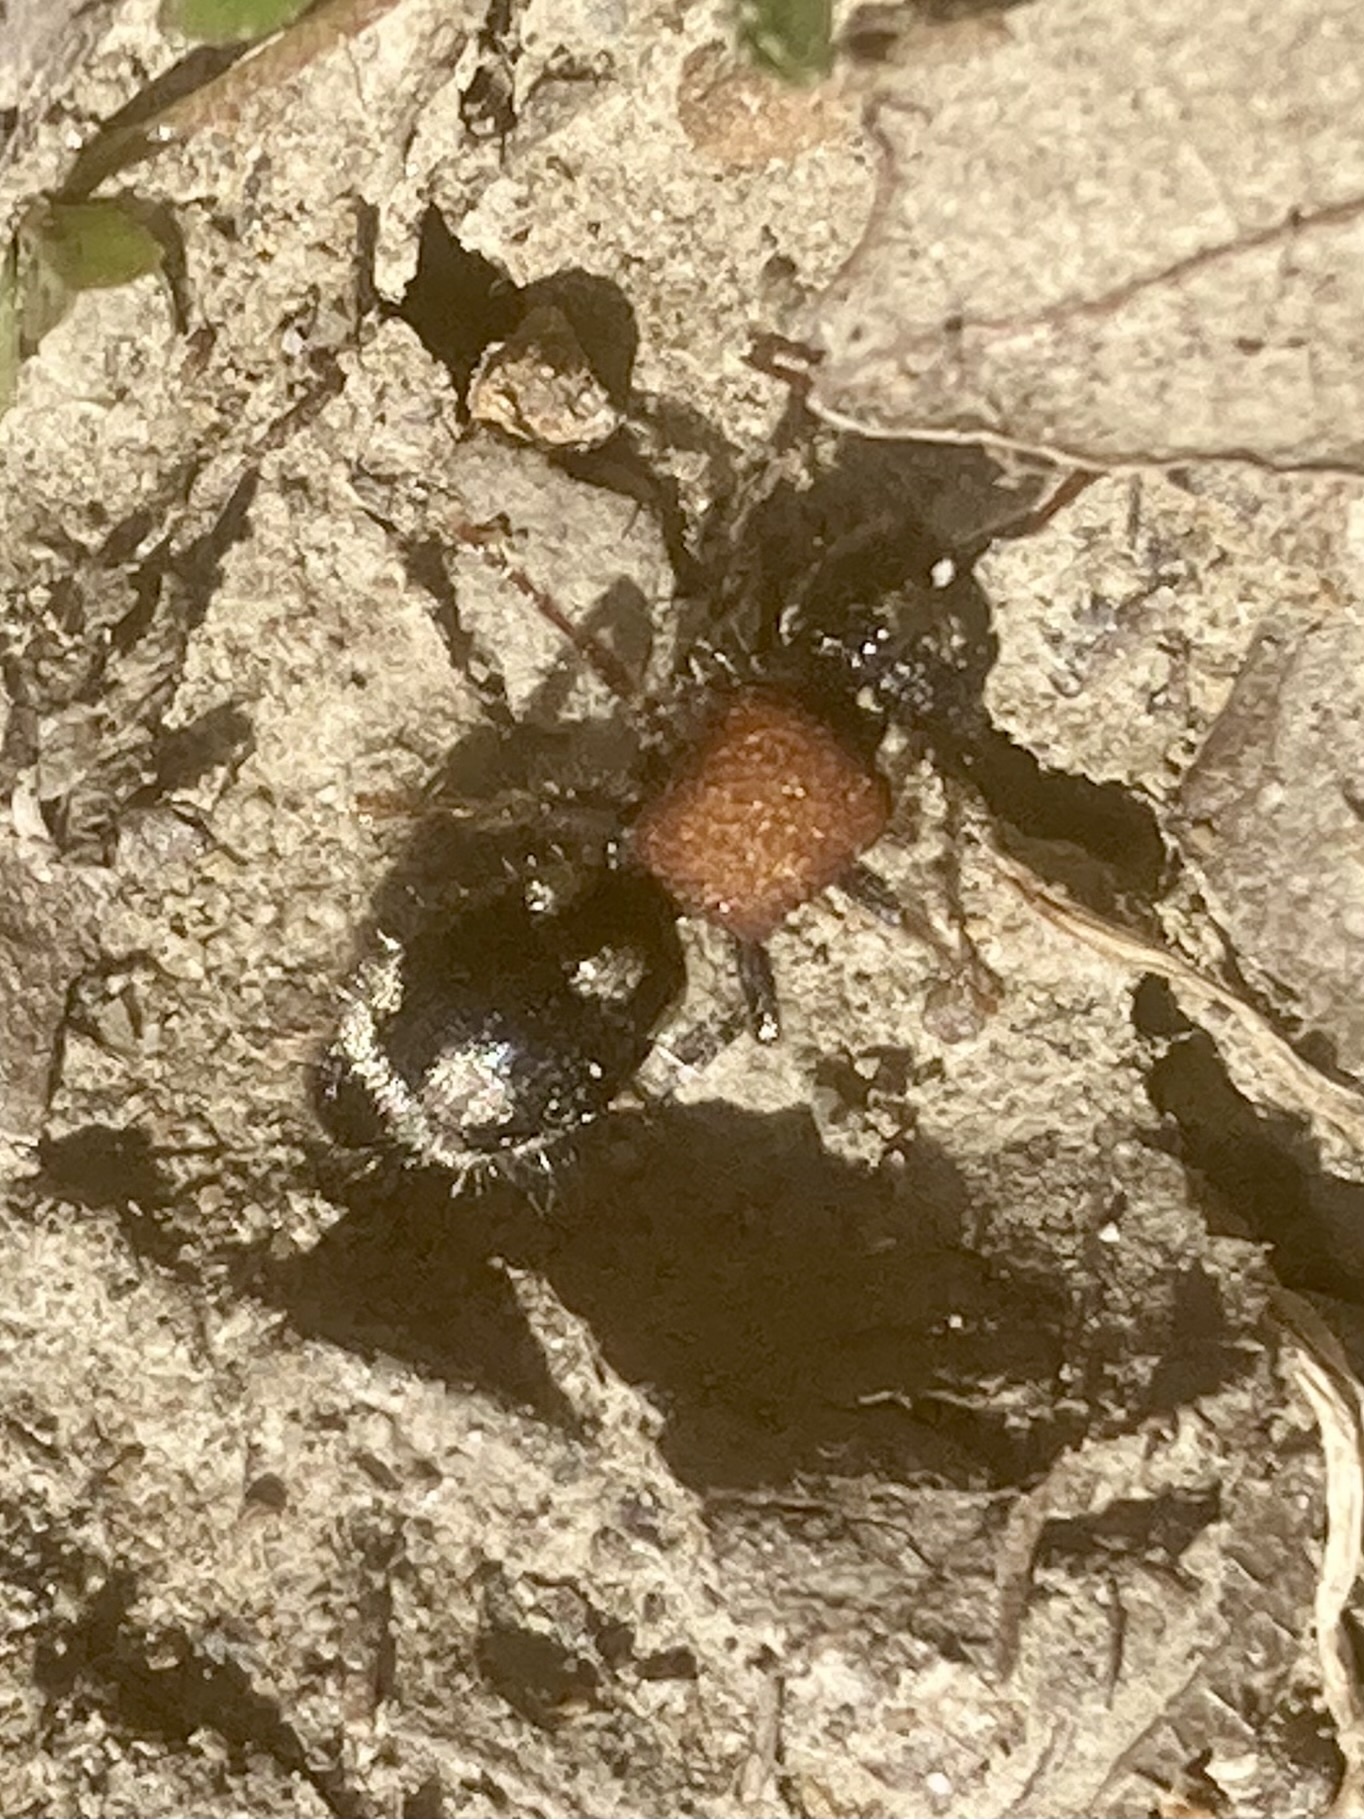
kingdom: Animalia
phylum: Arthropoda
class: Insecta
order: Hymenoptera
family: Mutillidae
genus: Ronisia
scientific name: Ronisia ghilianii
